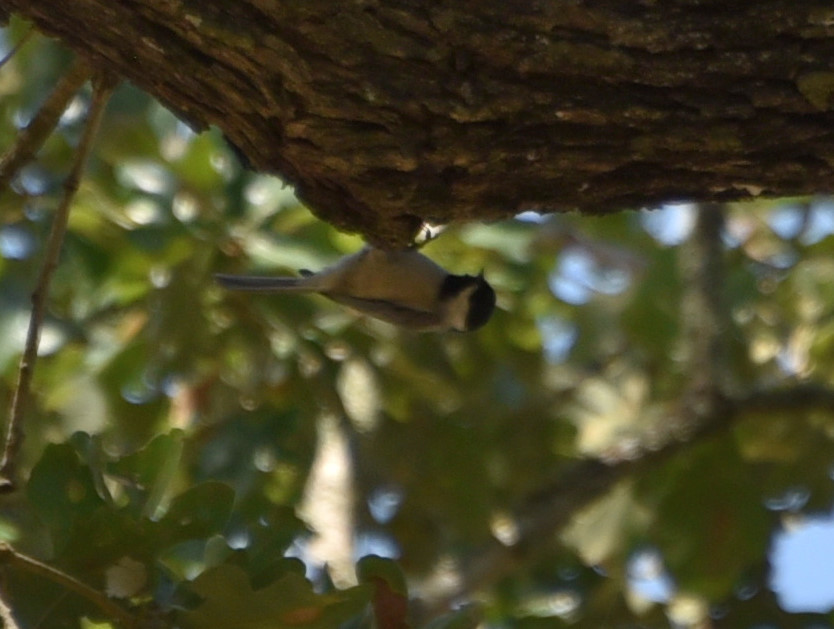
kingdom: Animalia
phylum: Chordata
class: Aves
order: Passeriformes
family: Paridae
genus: Poecile
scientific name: Poecile carolinensis
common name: Carolina chickadee
